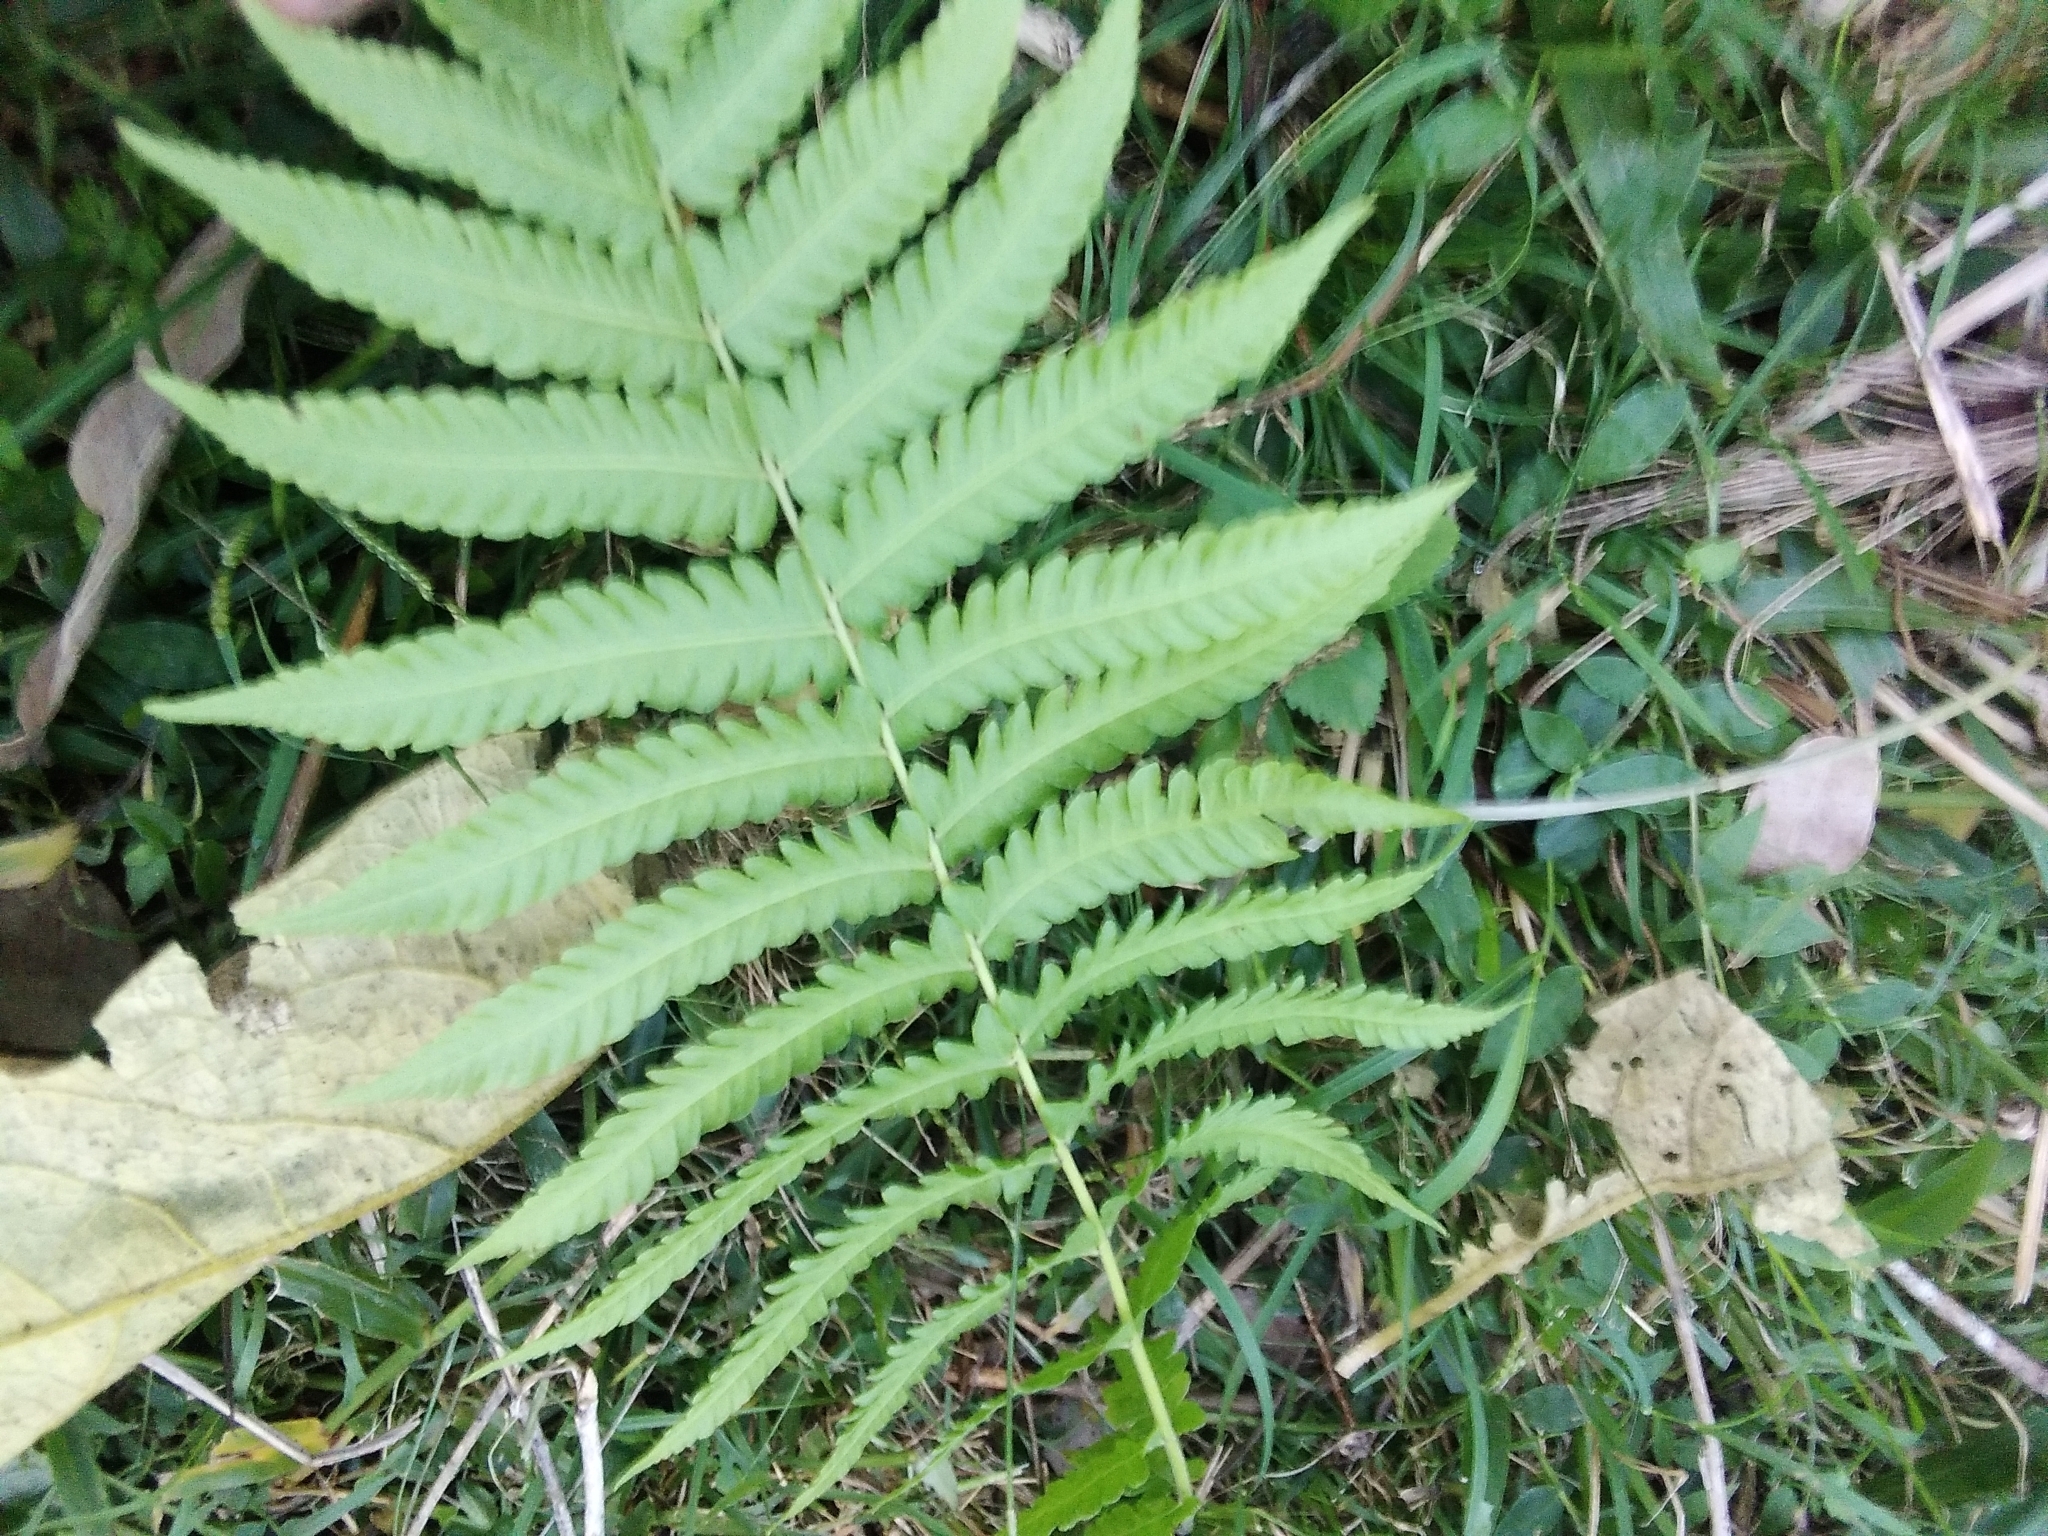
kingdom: Plantae
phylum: Tracheophyta
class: Polypodiopsida
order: Polypodiales
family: Thelypteridaceae
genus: Christella
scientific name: Christella dentata
